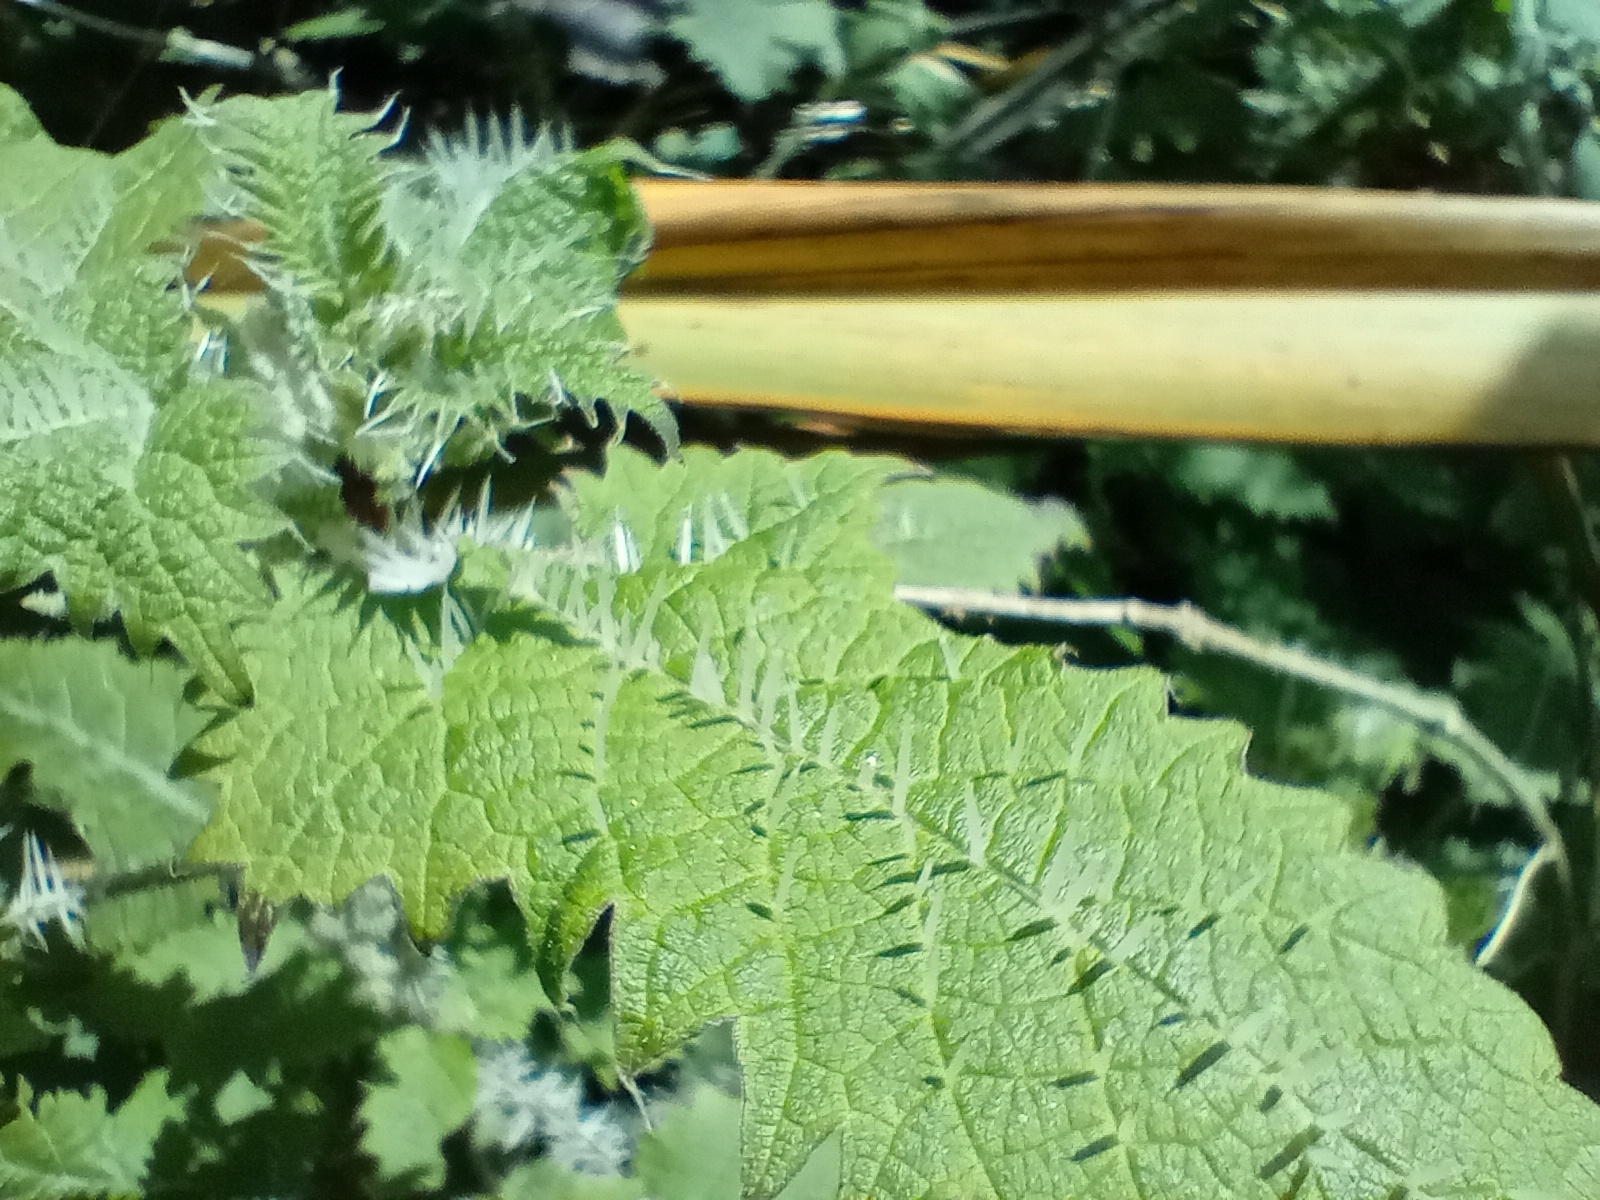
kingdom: Plantae
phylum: Tracheophyta
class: Magnoliopsida
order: Rosales
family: Urticaceae
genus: Urtica
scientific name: Urtica ferox
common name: Tree nettle
